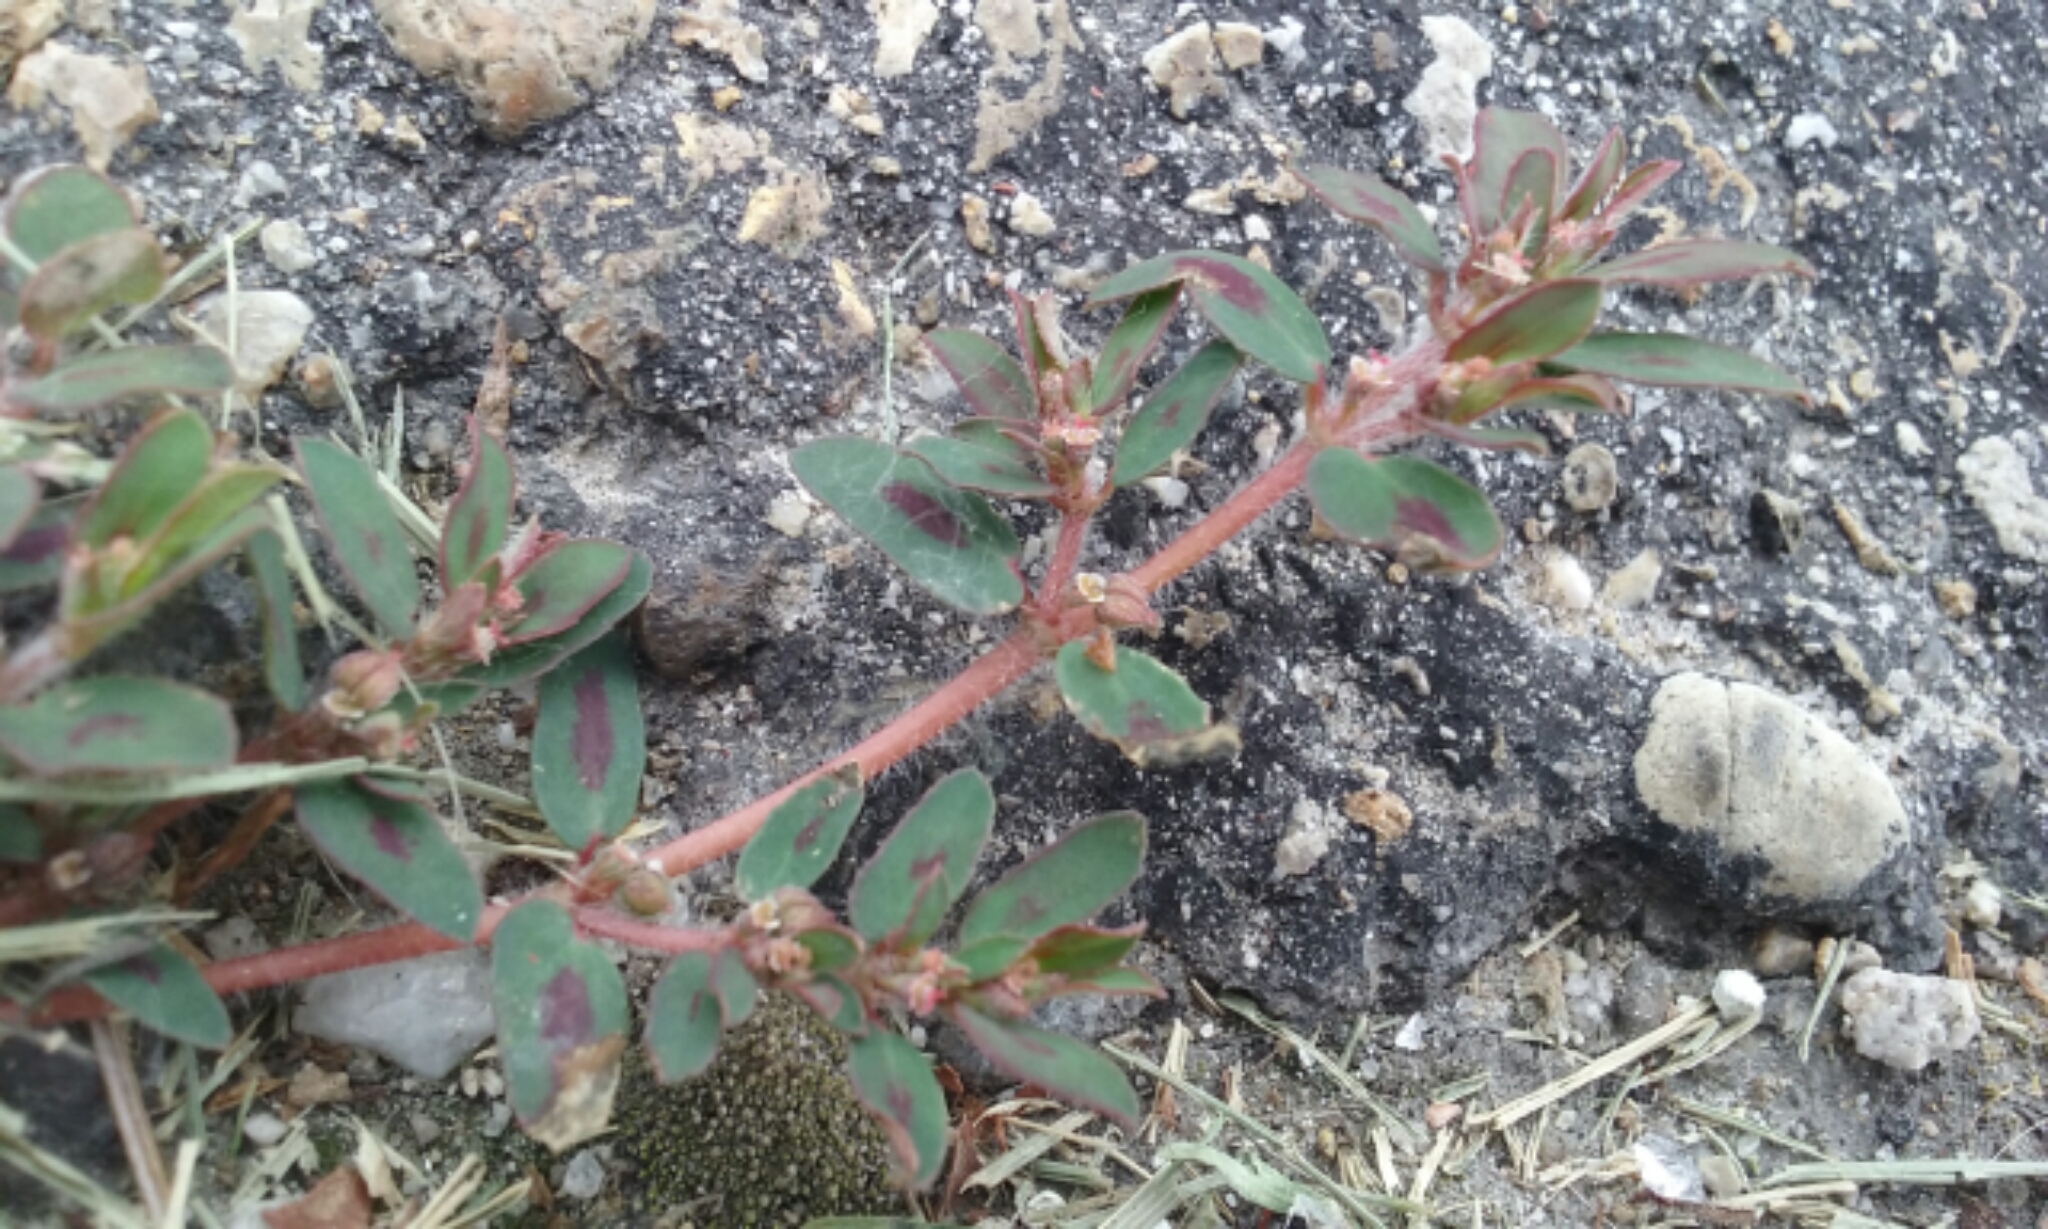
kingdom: Plantae
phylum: Tracheophyta
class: Magnoliopsida
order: Malpighiales
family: Euphorbiaceae
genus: Euphorbia
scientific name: Euphorbia maculata
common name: Spotted spurge
